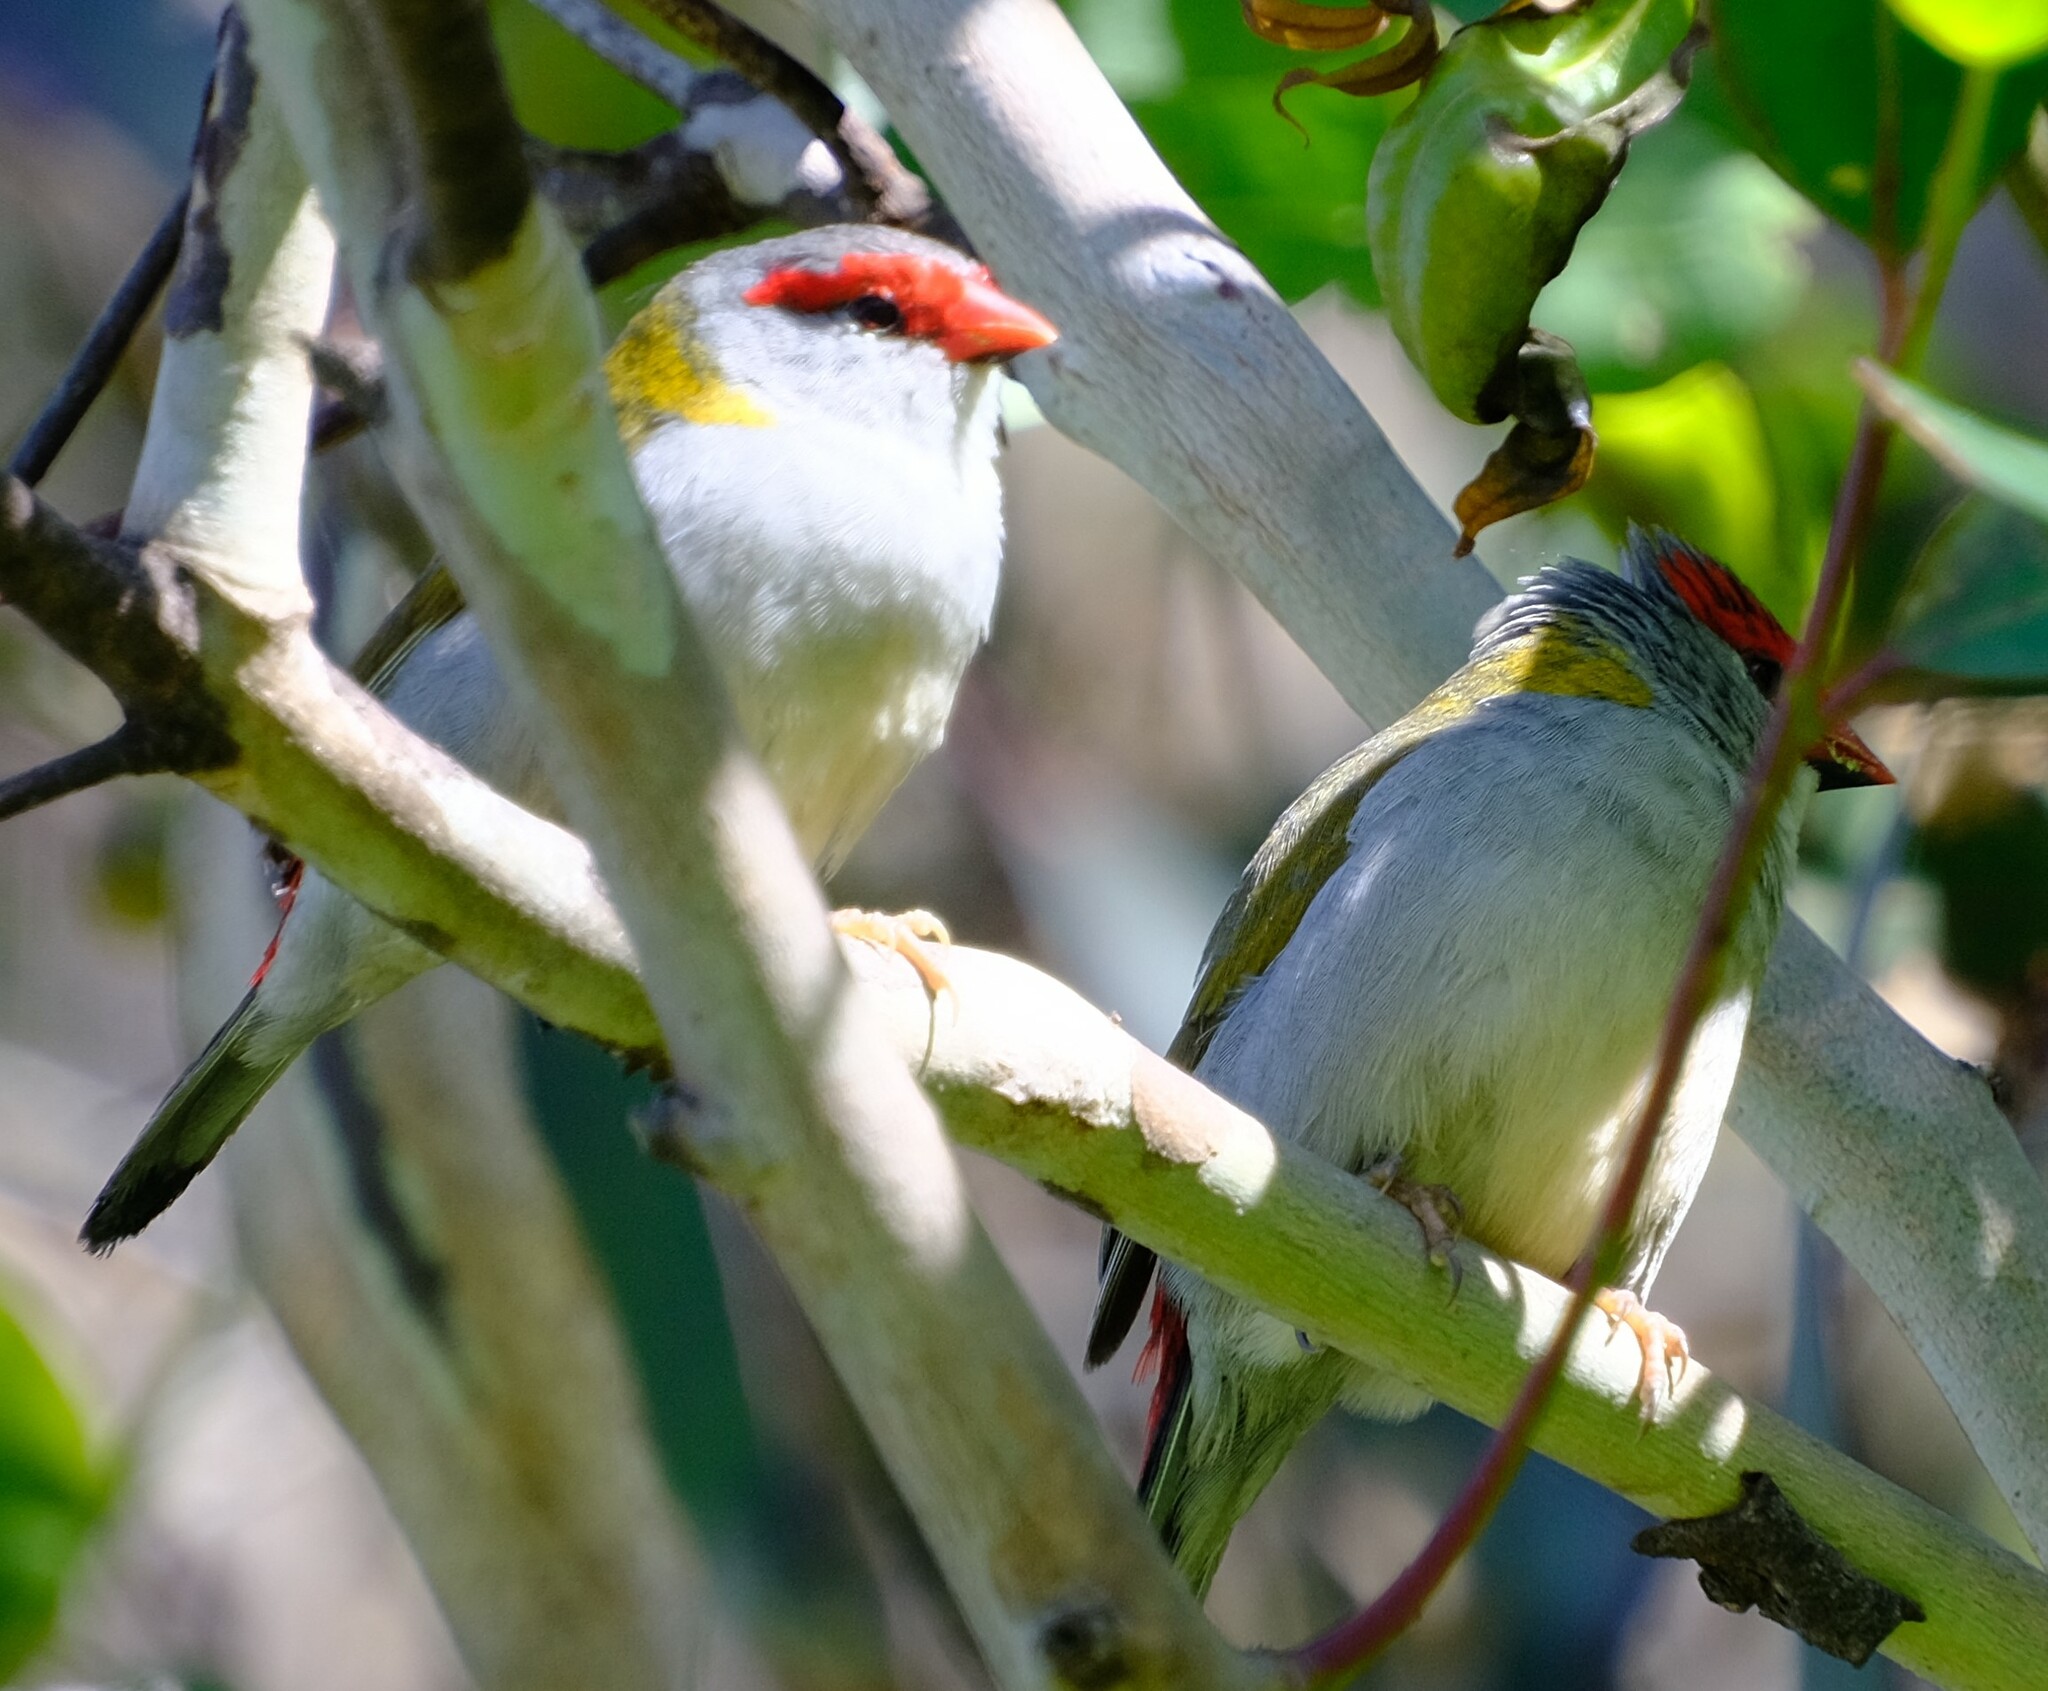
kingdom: Animalia
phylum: Chordata
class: Aves
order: Passeriformes
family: Estrildidae
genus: Neochmia
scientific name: Neochmia temporalis
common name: Red-browed finch
